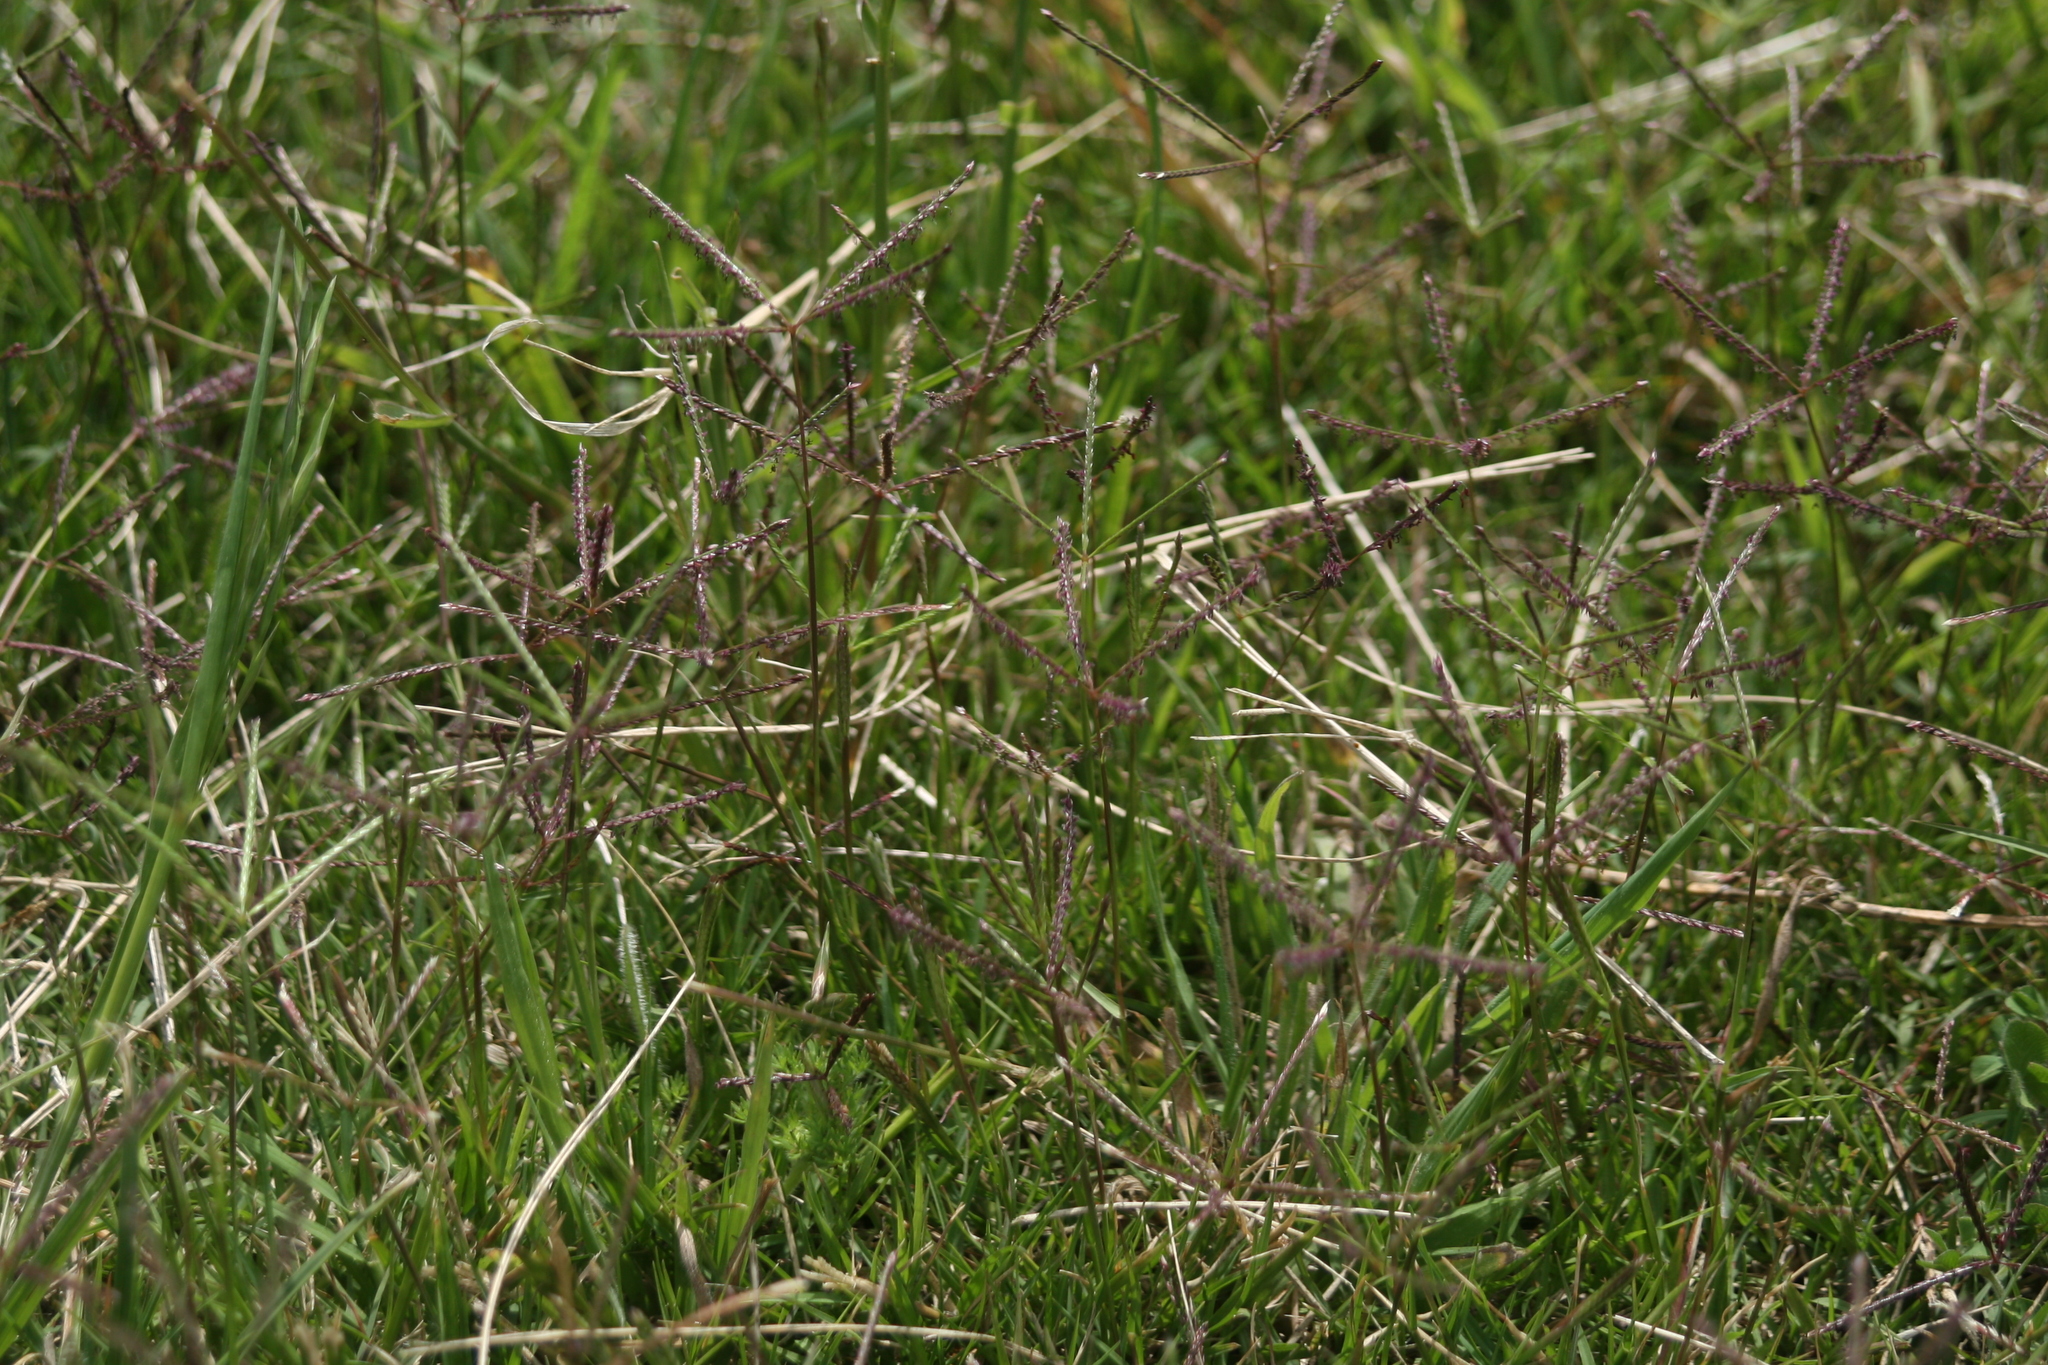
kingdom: Plantae
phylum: Tracheophyta
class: Liliopsida
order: Poales
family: Poaceae
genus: Cynodon
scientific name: Cynodon dactylon
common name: Bermuda grass
